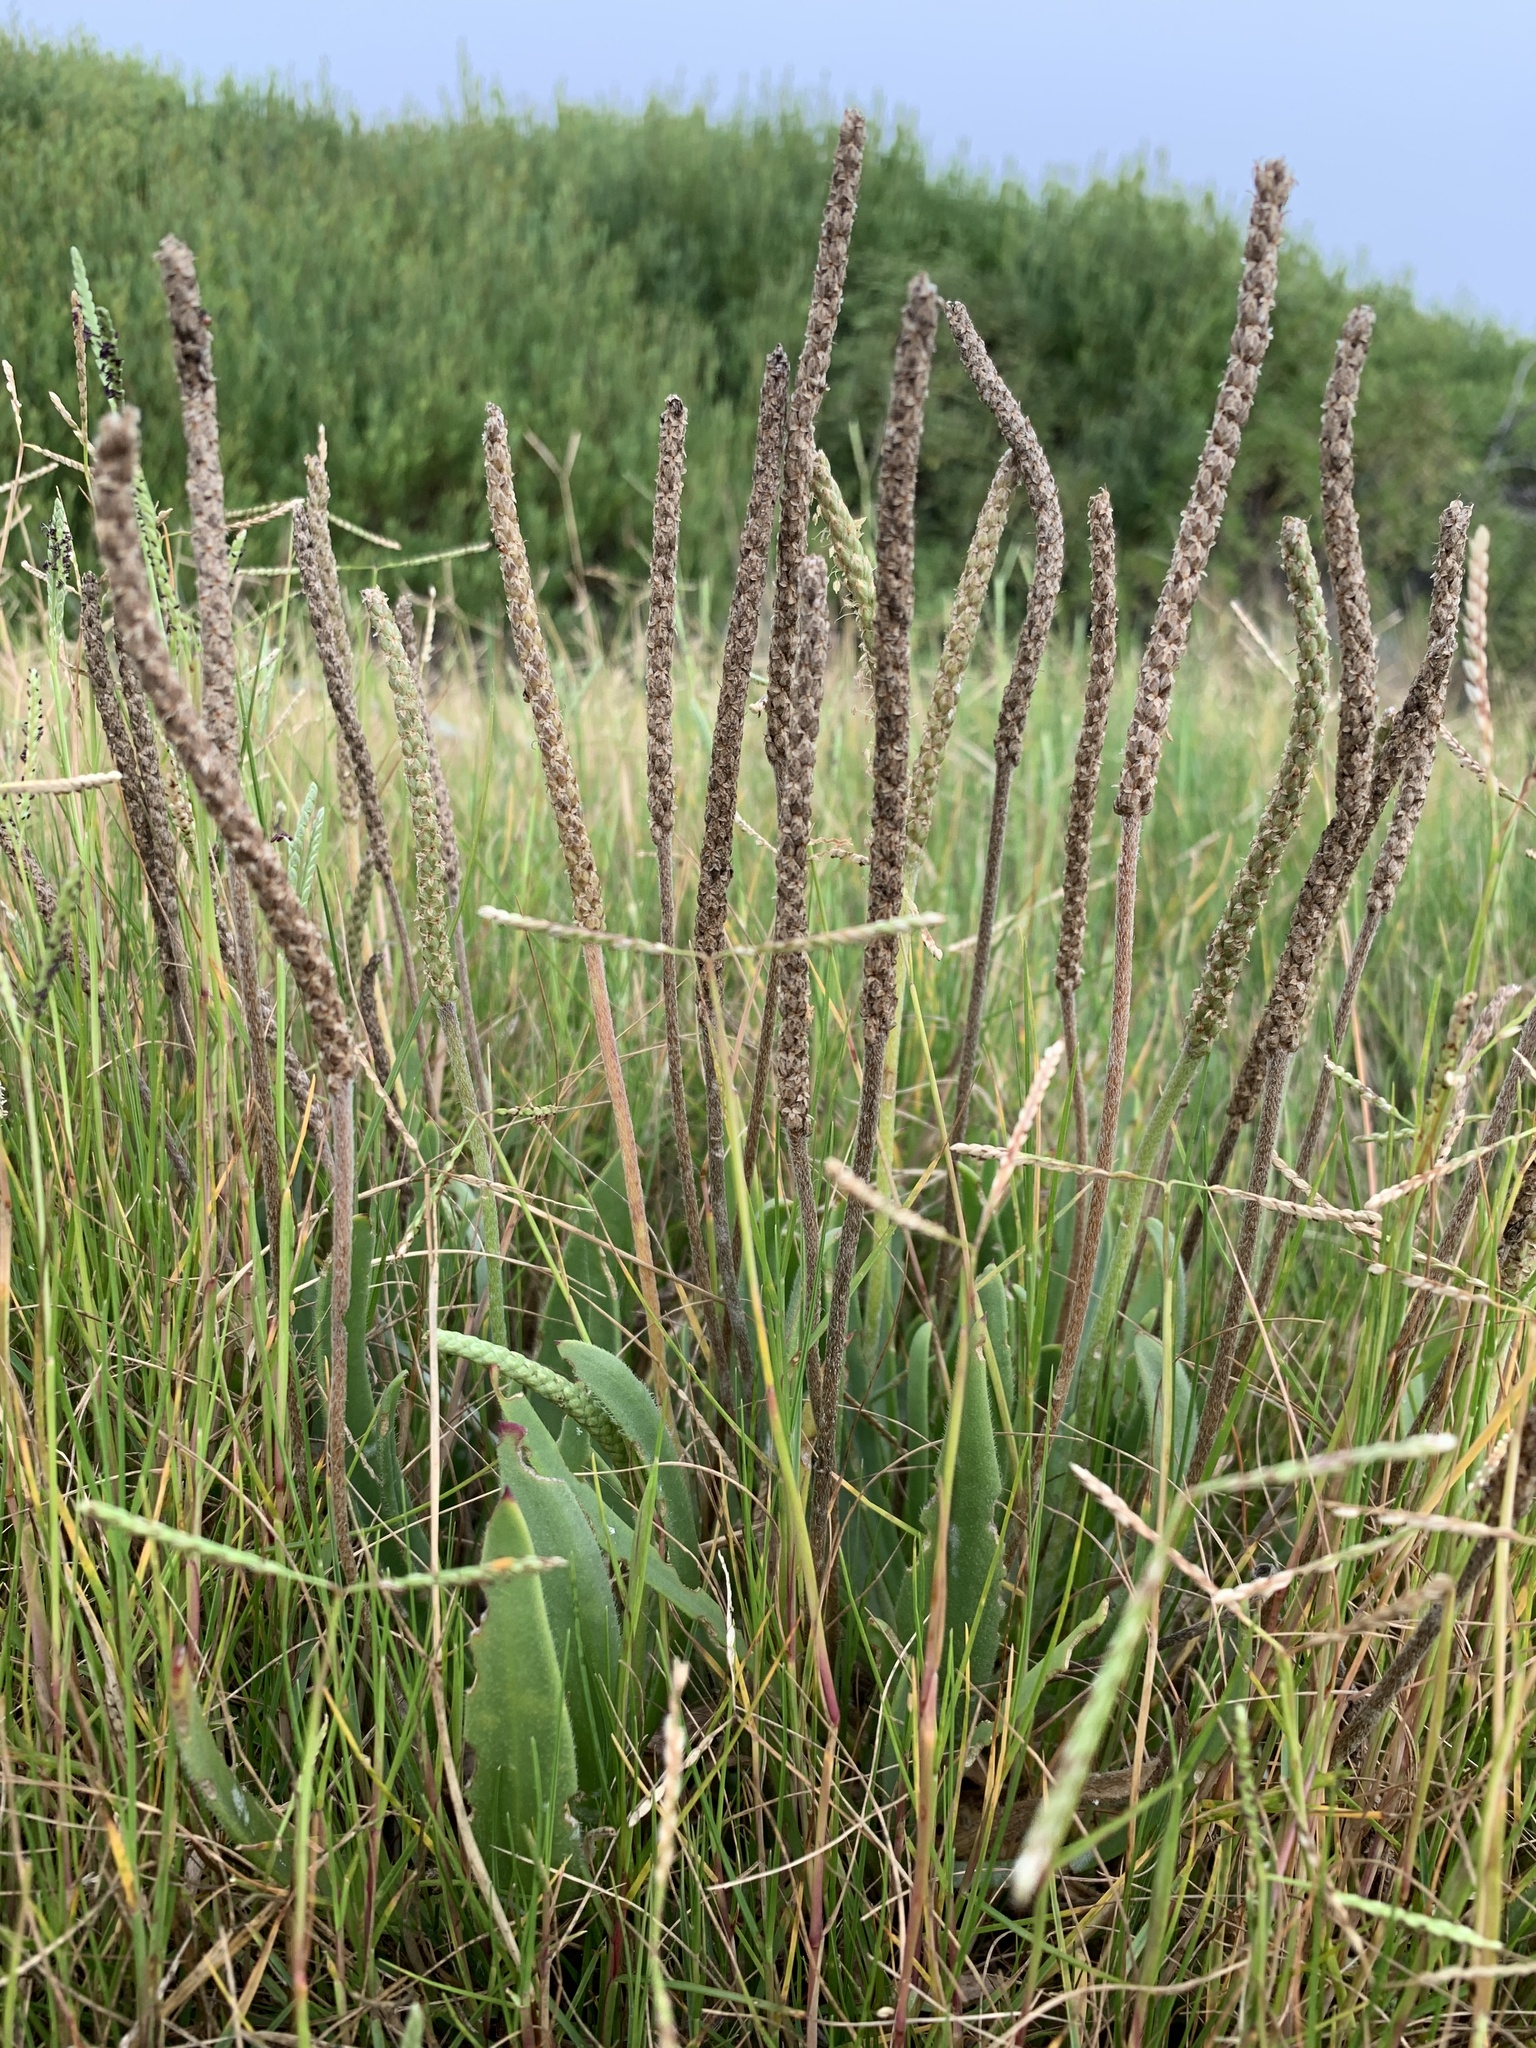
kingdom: Plantae
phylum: Tracheophyta
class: Magnoliopsida
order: Lamiales
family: Plantaginaceae
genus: Plantago
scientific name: Plantago carnosa
